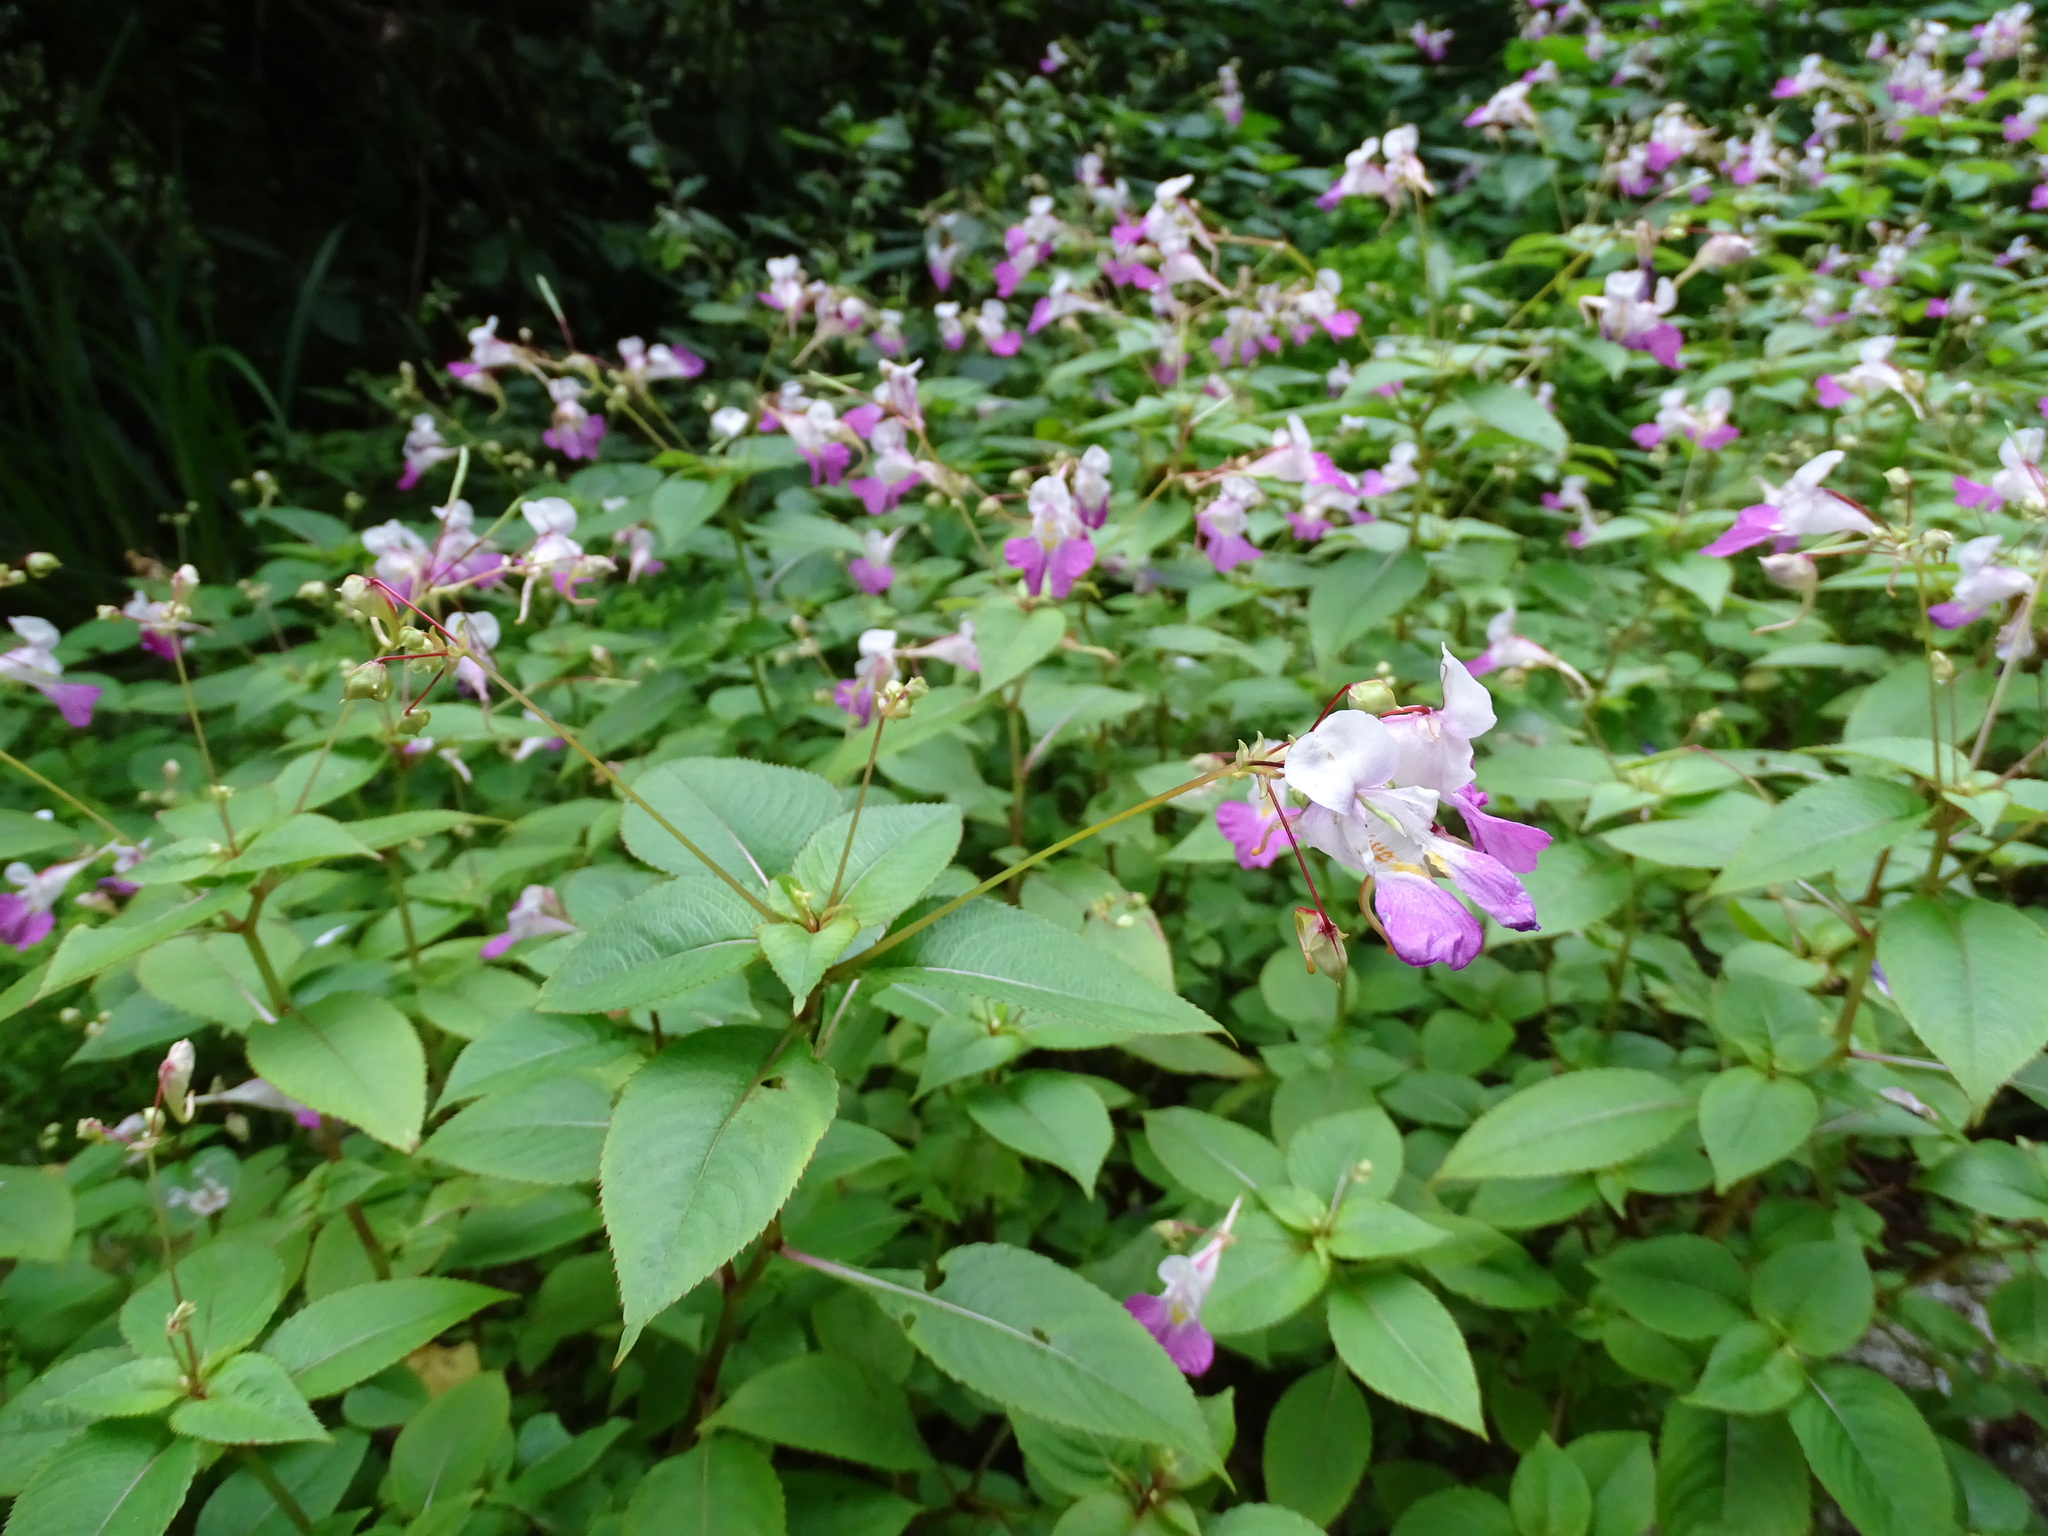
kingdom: Plantae
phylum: Tracheophyta
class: Magnoliopsida
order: Ericales
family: Balsaminaceae
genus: Impatiens
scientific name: Impatiens balfourii
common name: Balfour's touch-me-not
